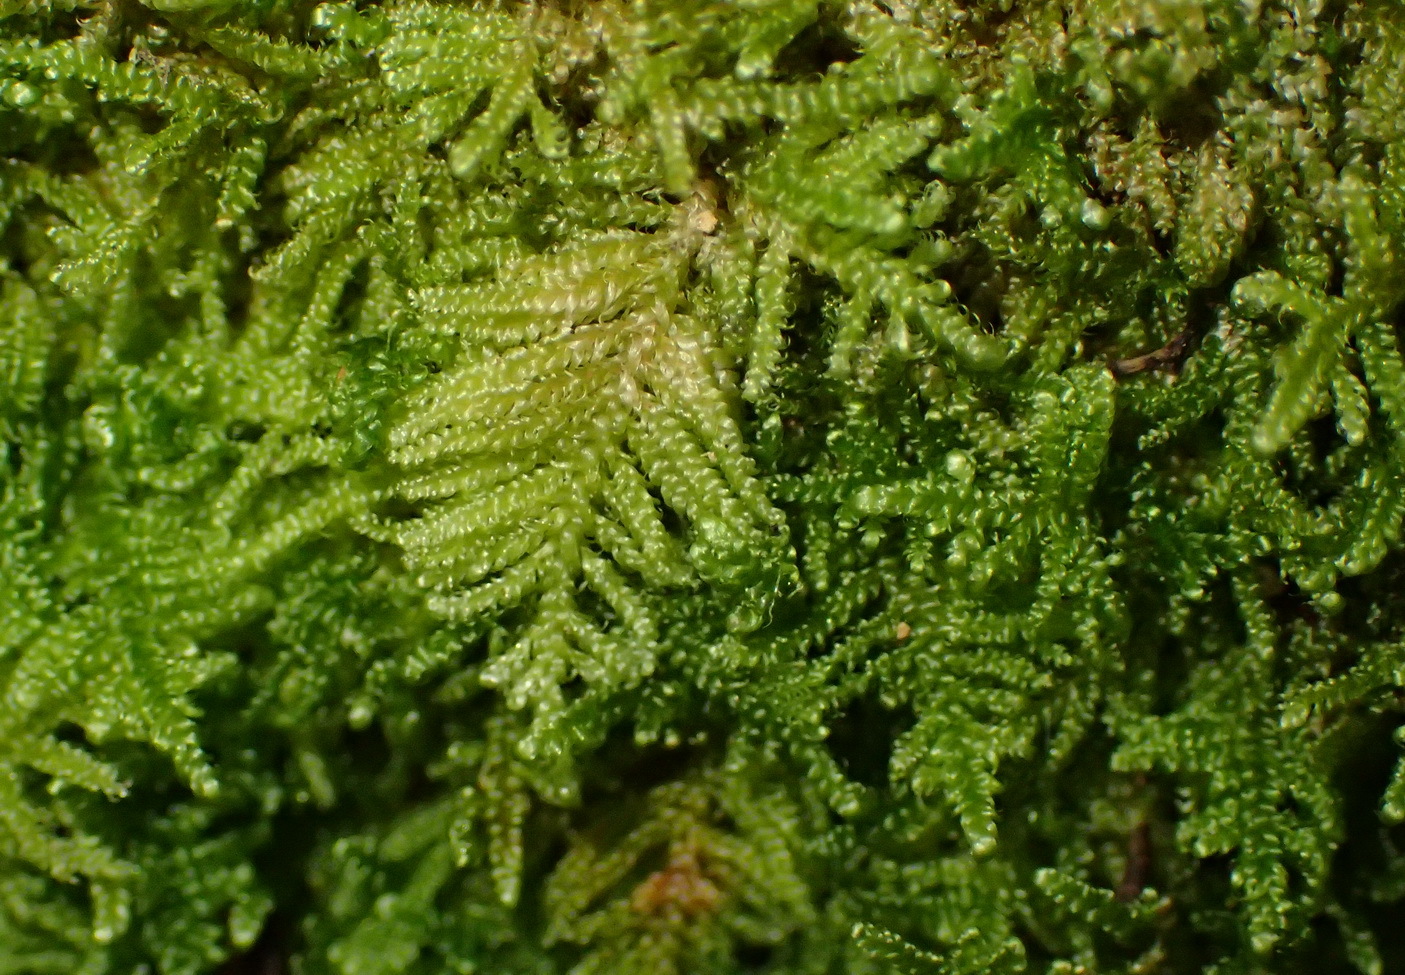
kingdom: Plantae
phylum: Bryophyta
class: Bryopsida
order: Hypnales
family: Hypnaceae
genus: Ectropothecium
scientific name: Ectropothecium regulare
